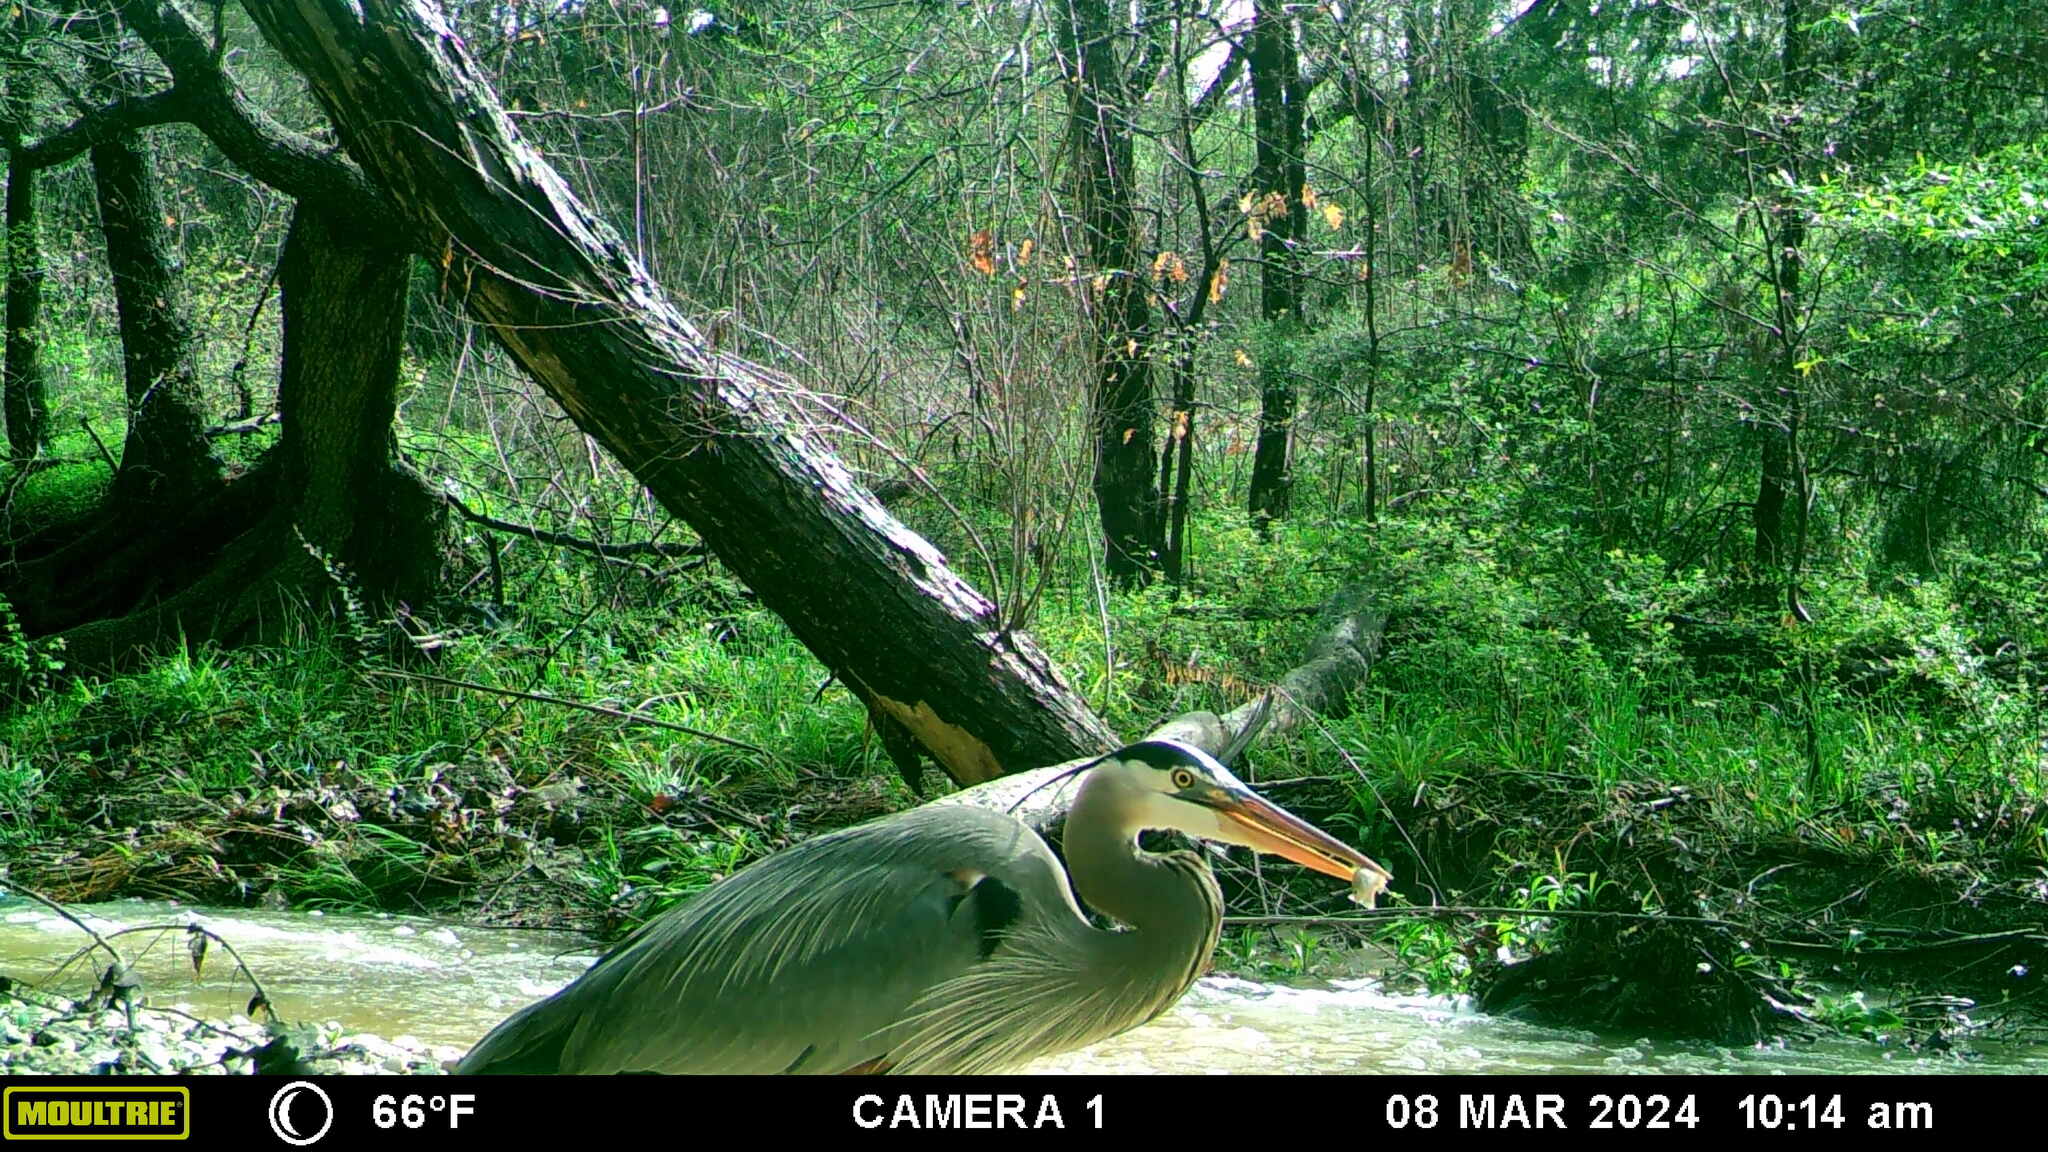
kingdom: Animalia
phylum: Chordata
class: Aves
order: Pelecaniformes
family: Ardeidae
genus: Ardea
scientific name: Ardea herodias
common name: Great blue heron
